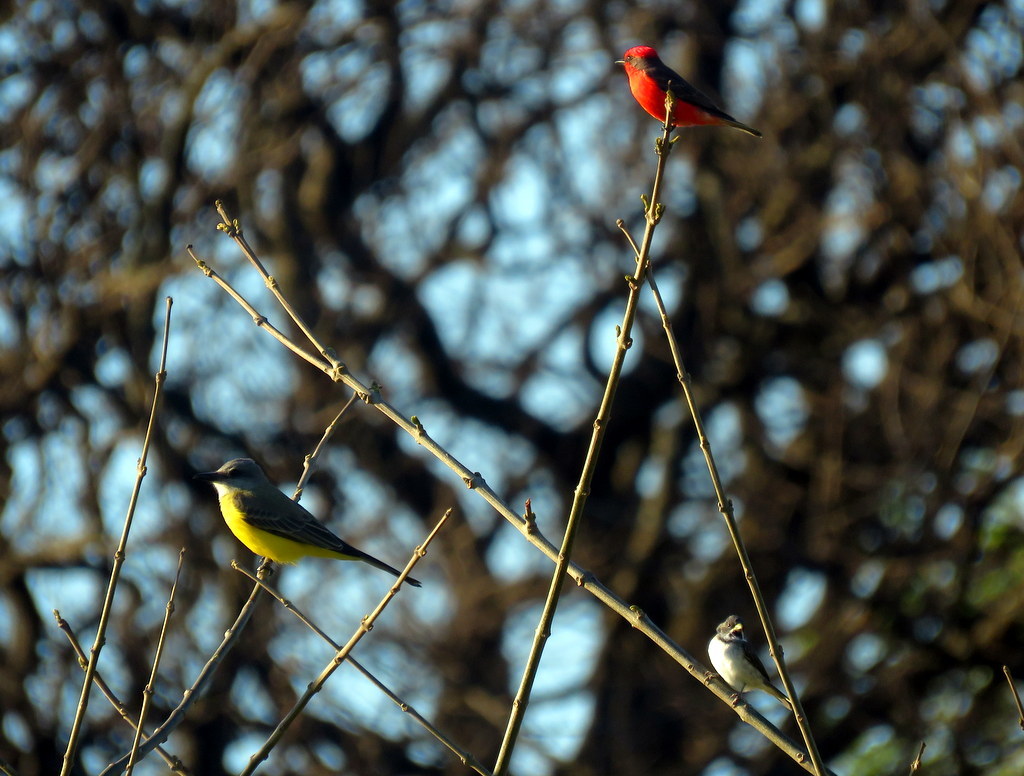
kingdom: Animalia
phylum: Chordata
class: Aves
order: Passeriformes
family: Tyrannidae
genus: Tyrannus
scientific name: Tyrannus melancholicus
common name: Tropical kingbird
